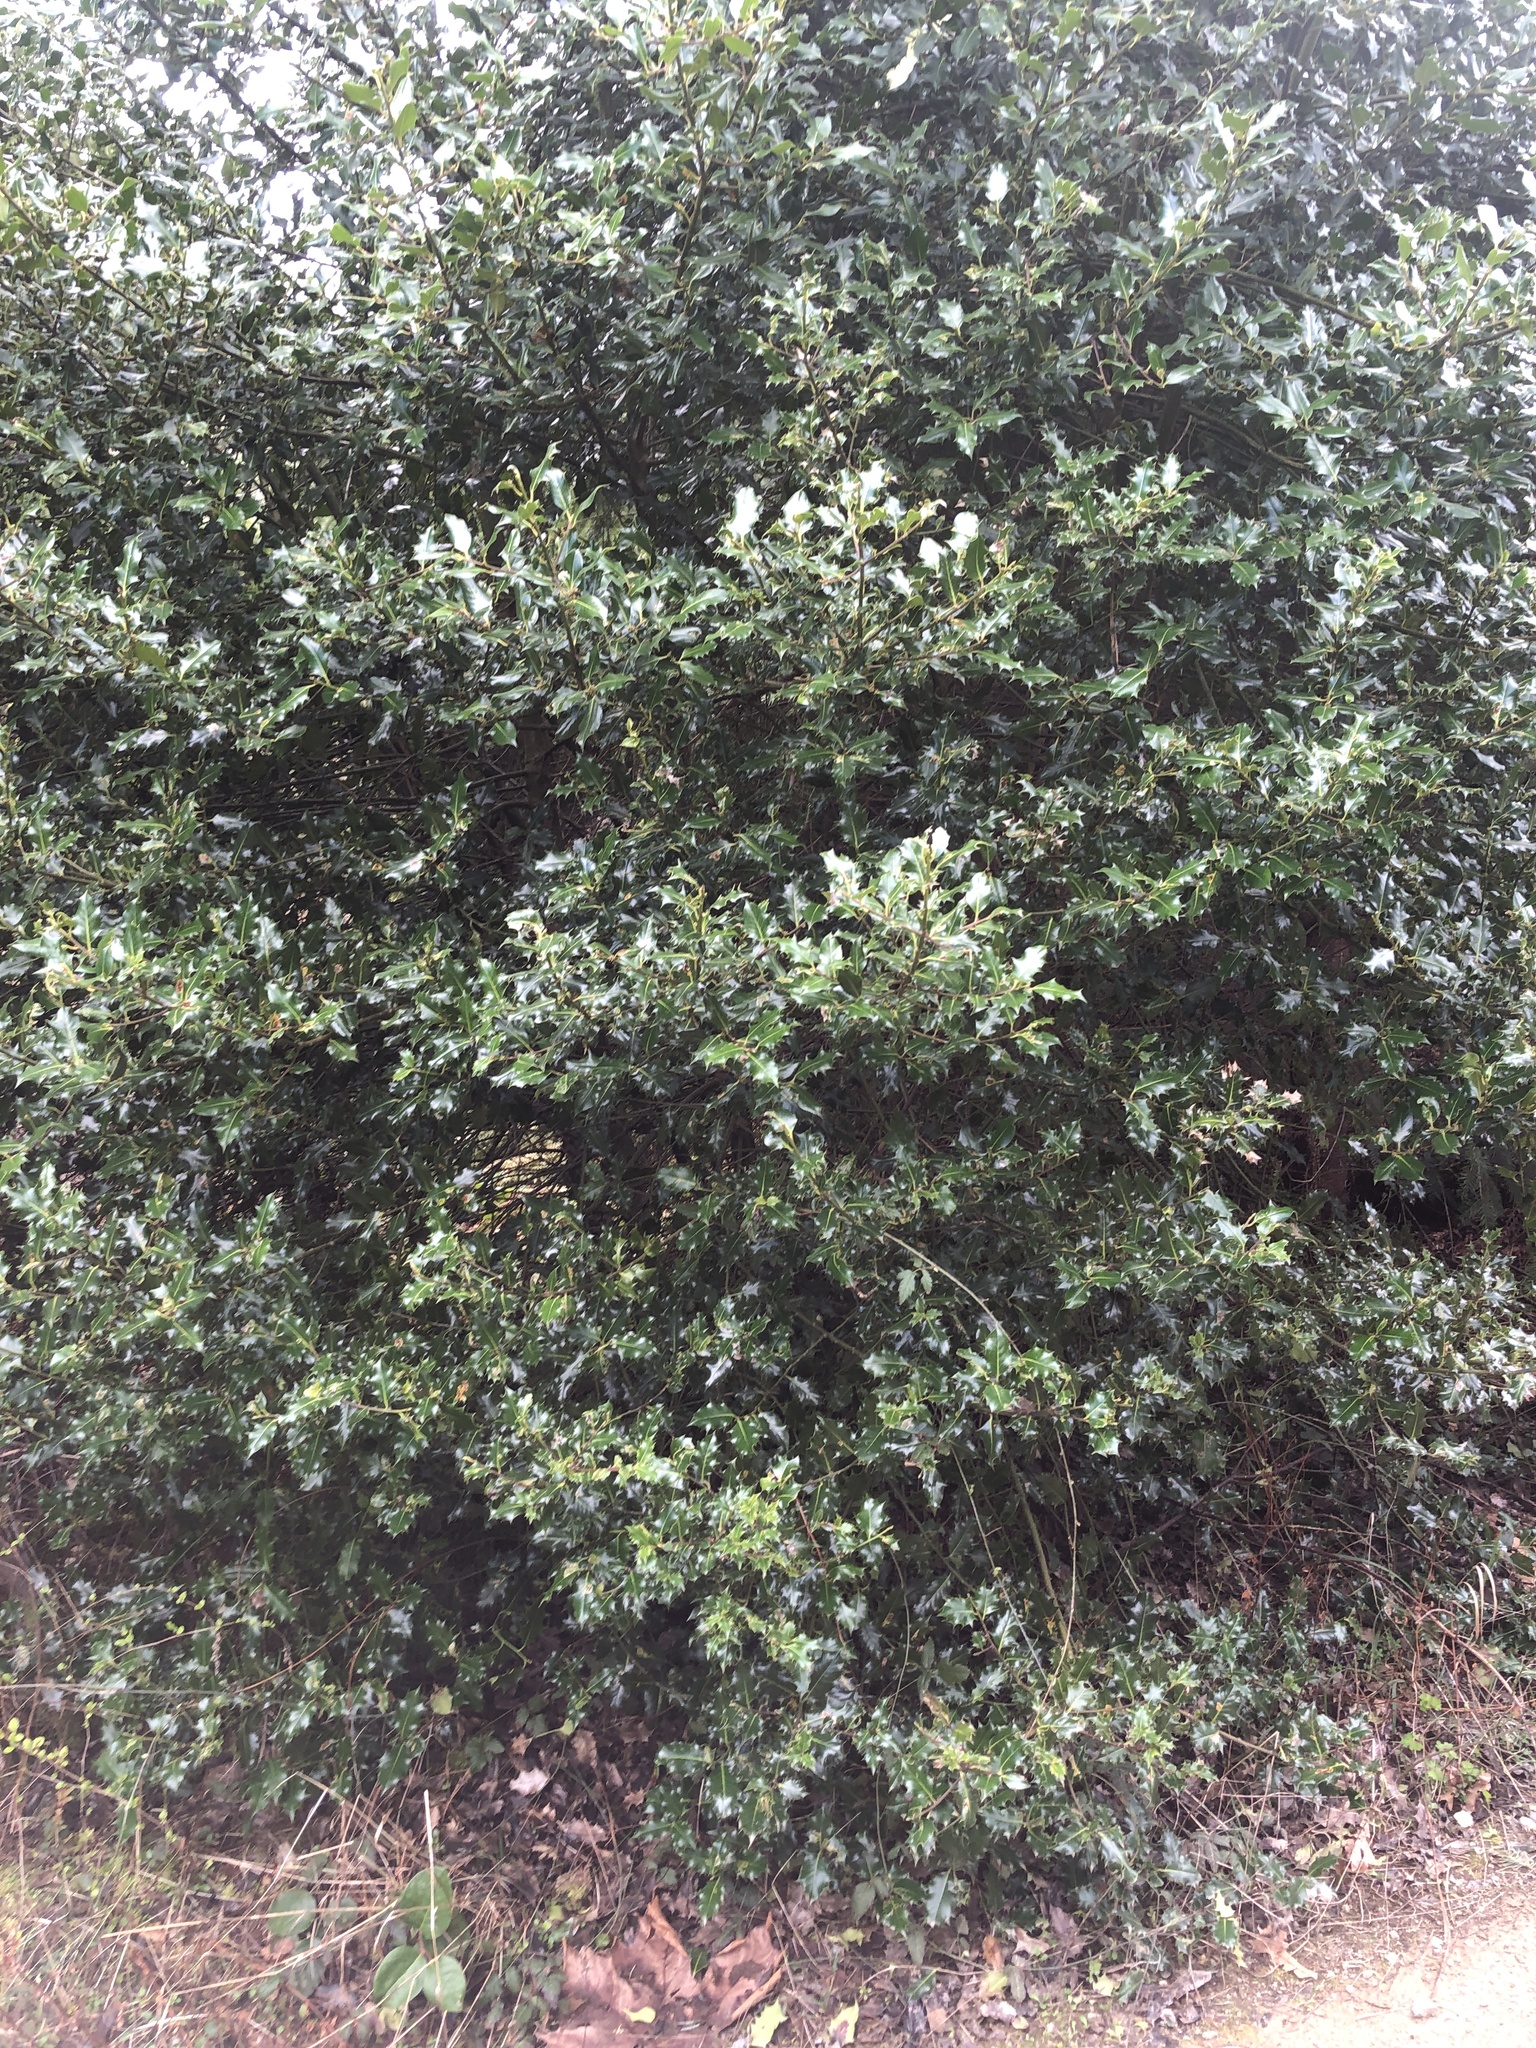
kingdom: Plantae
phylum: Tracheophyta
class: Magnoliopsida
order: Aquifoliales
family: Aquifoliaceae
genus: Ilex
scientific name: Ilex aquifolium
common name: English holly
